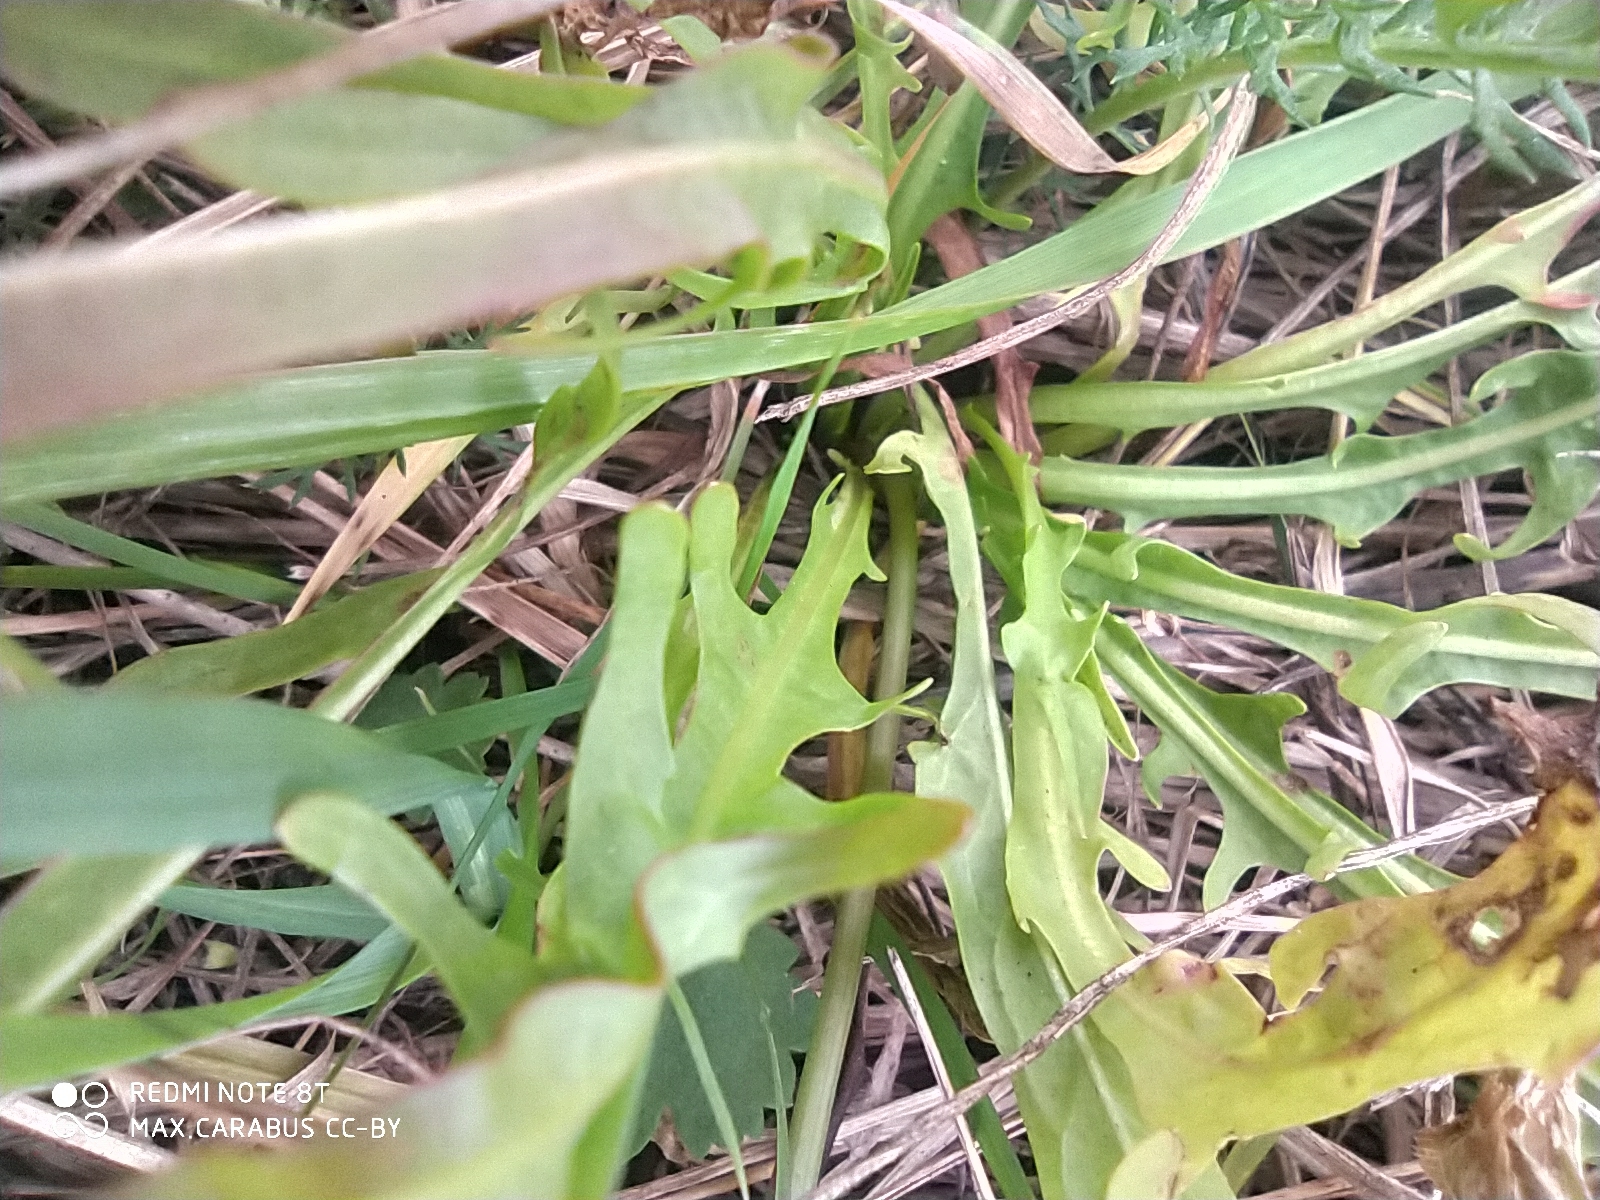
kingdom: Plantae
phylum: Tracheophyta
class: Magnoliopsida
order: Asterales
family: Asteraceae
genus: Scorzoneroides
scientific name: Scorzoneroides autumnalis
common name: Autumn hawkbit
